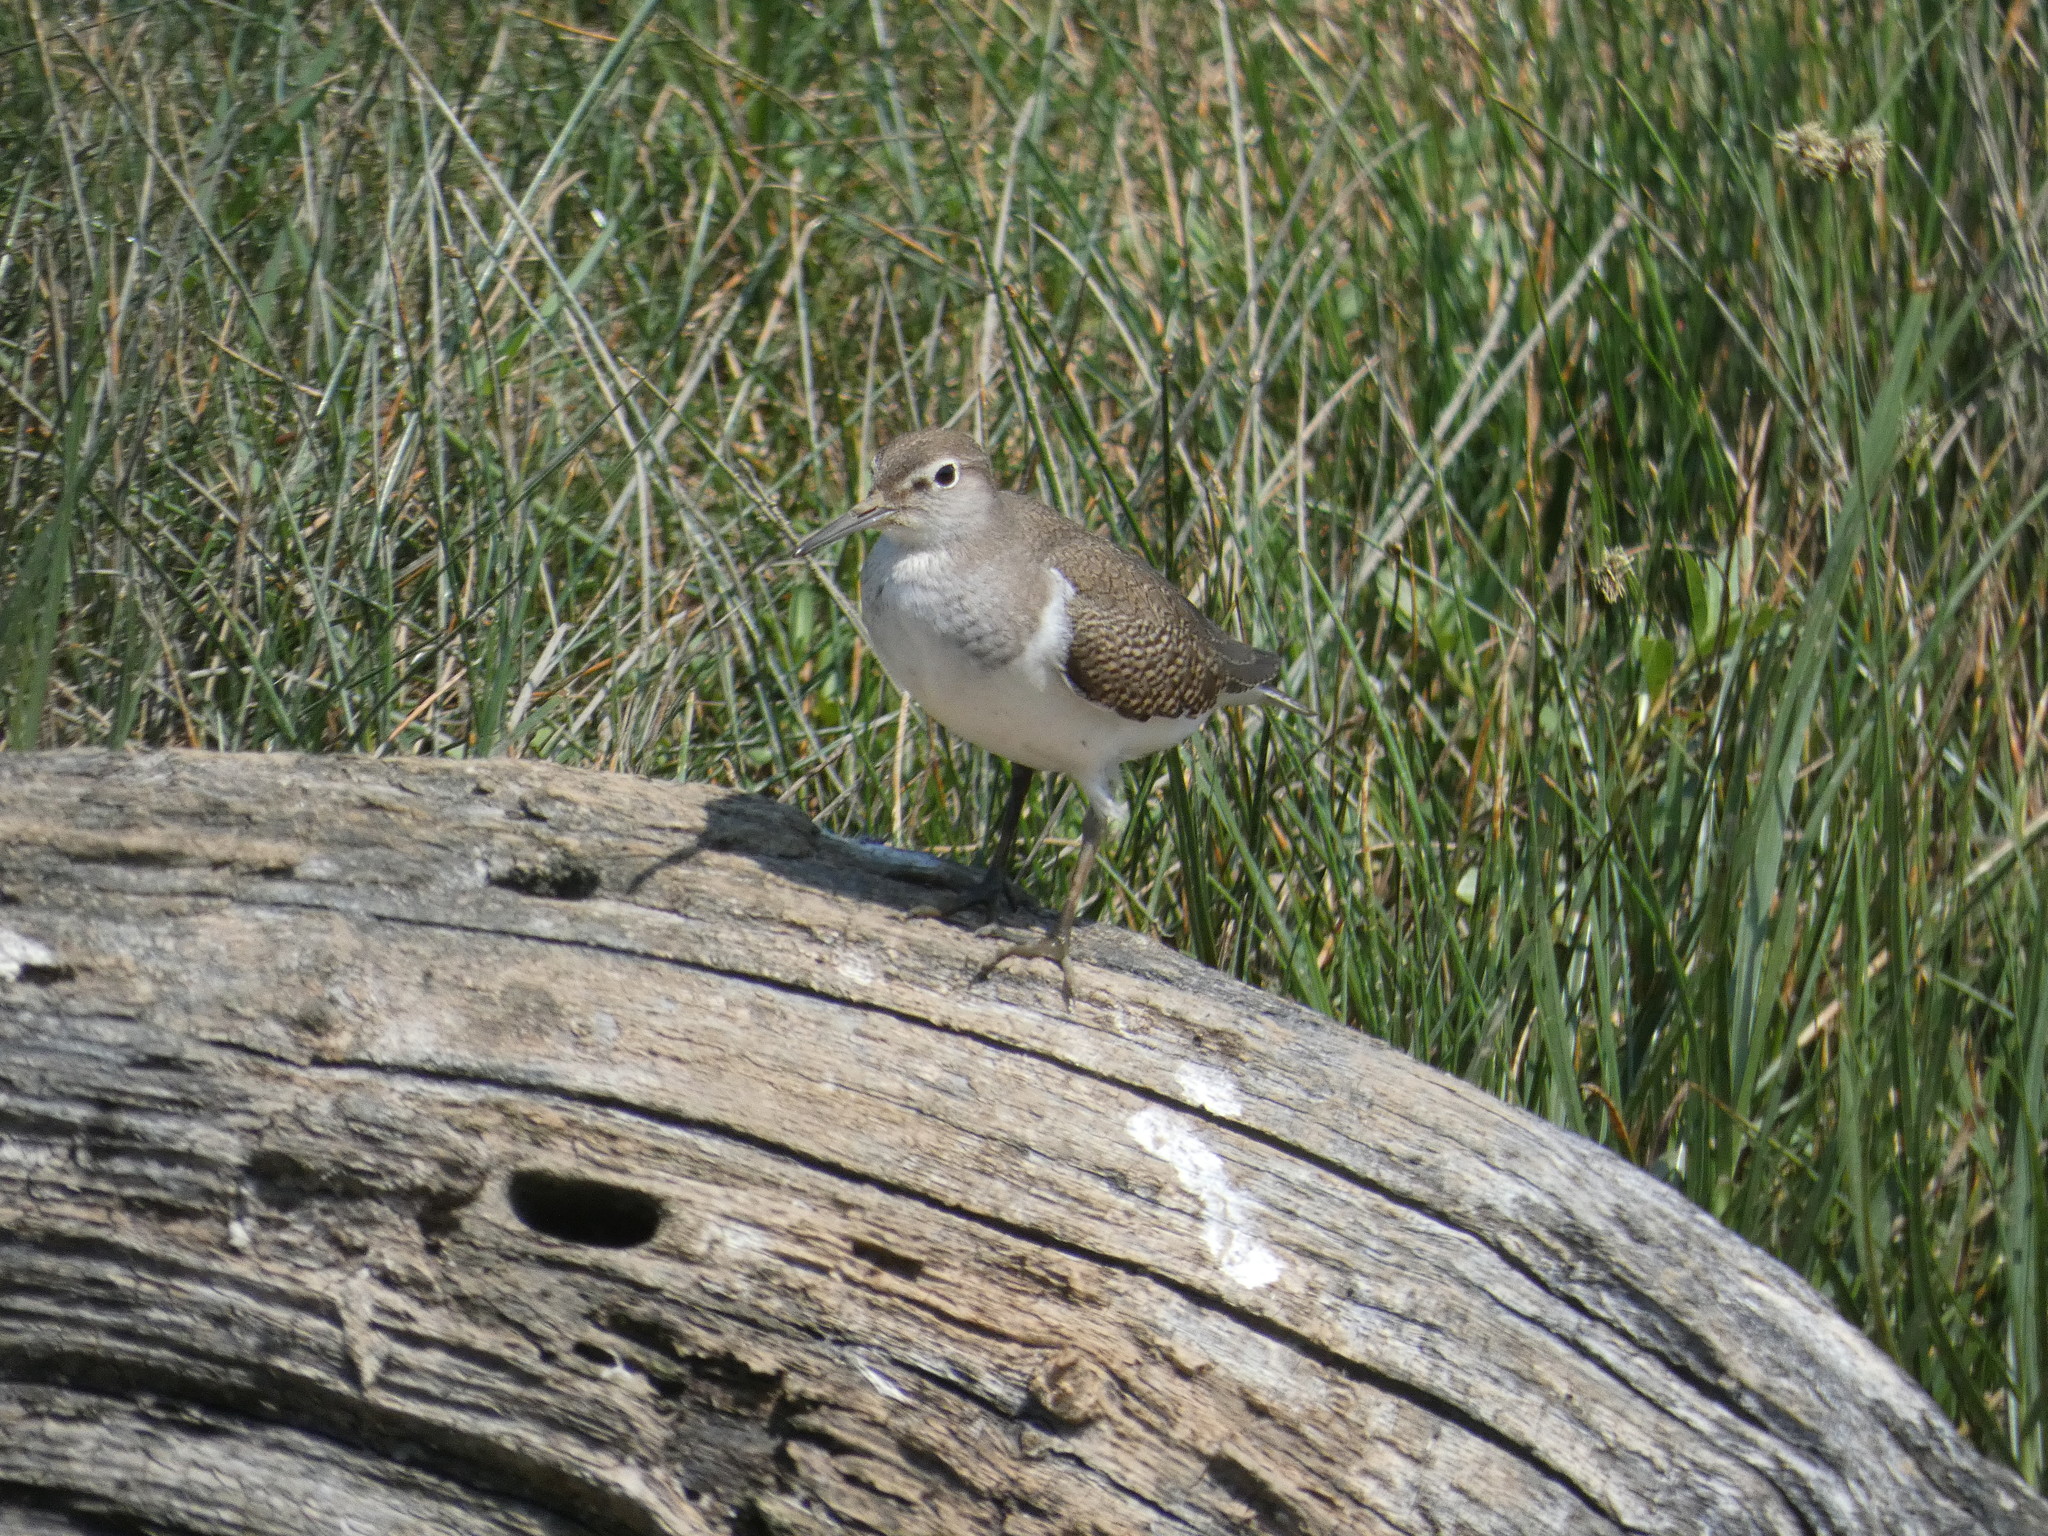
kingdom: Animalia
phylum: Chordata
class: Aves
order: Charadriiformes
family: Scolopacidae
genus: Actitis
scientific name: Actitis hypoleucos
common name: Common sandpiper
